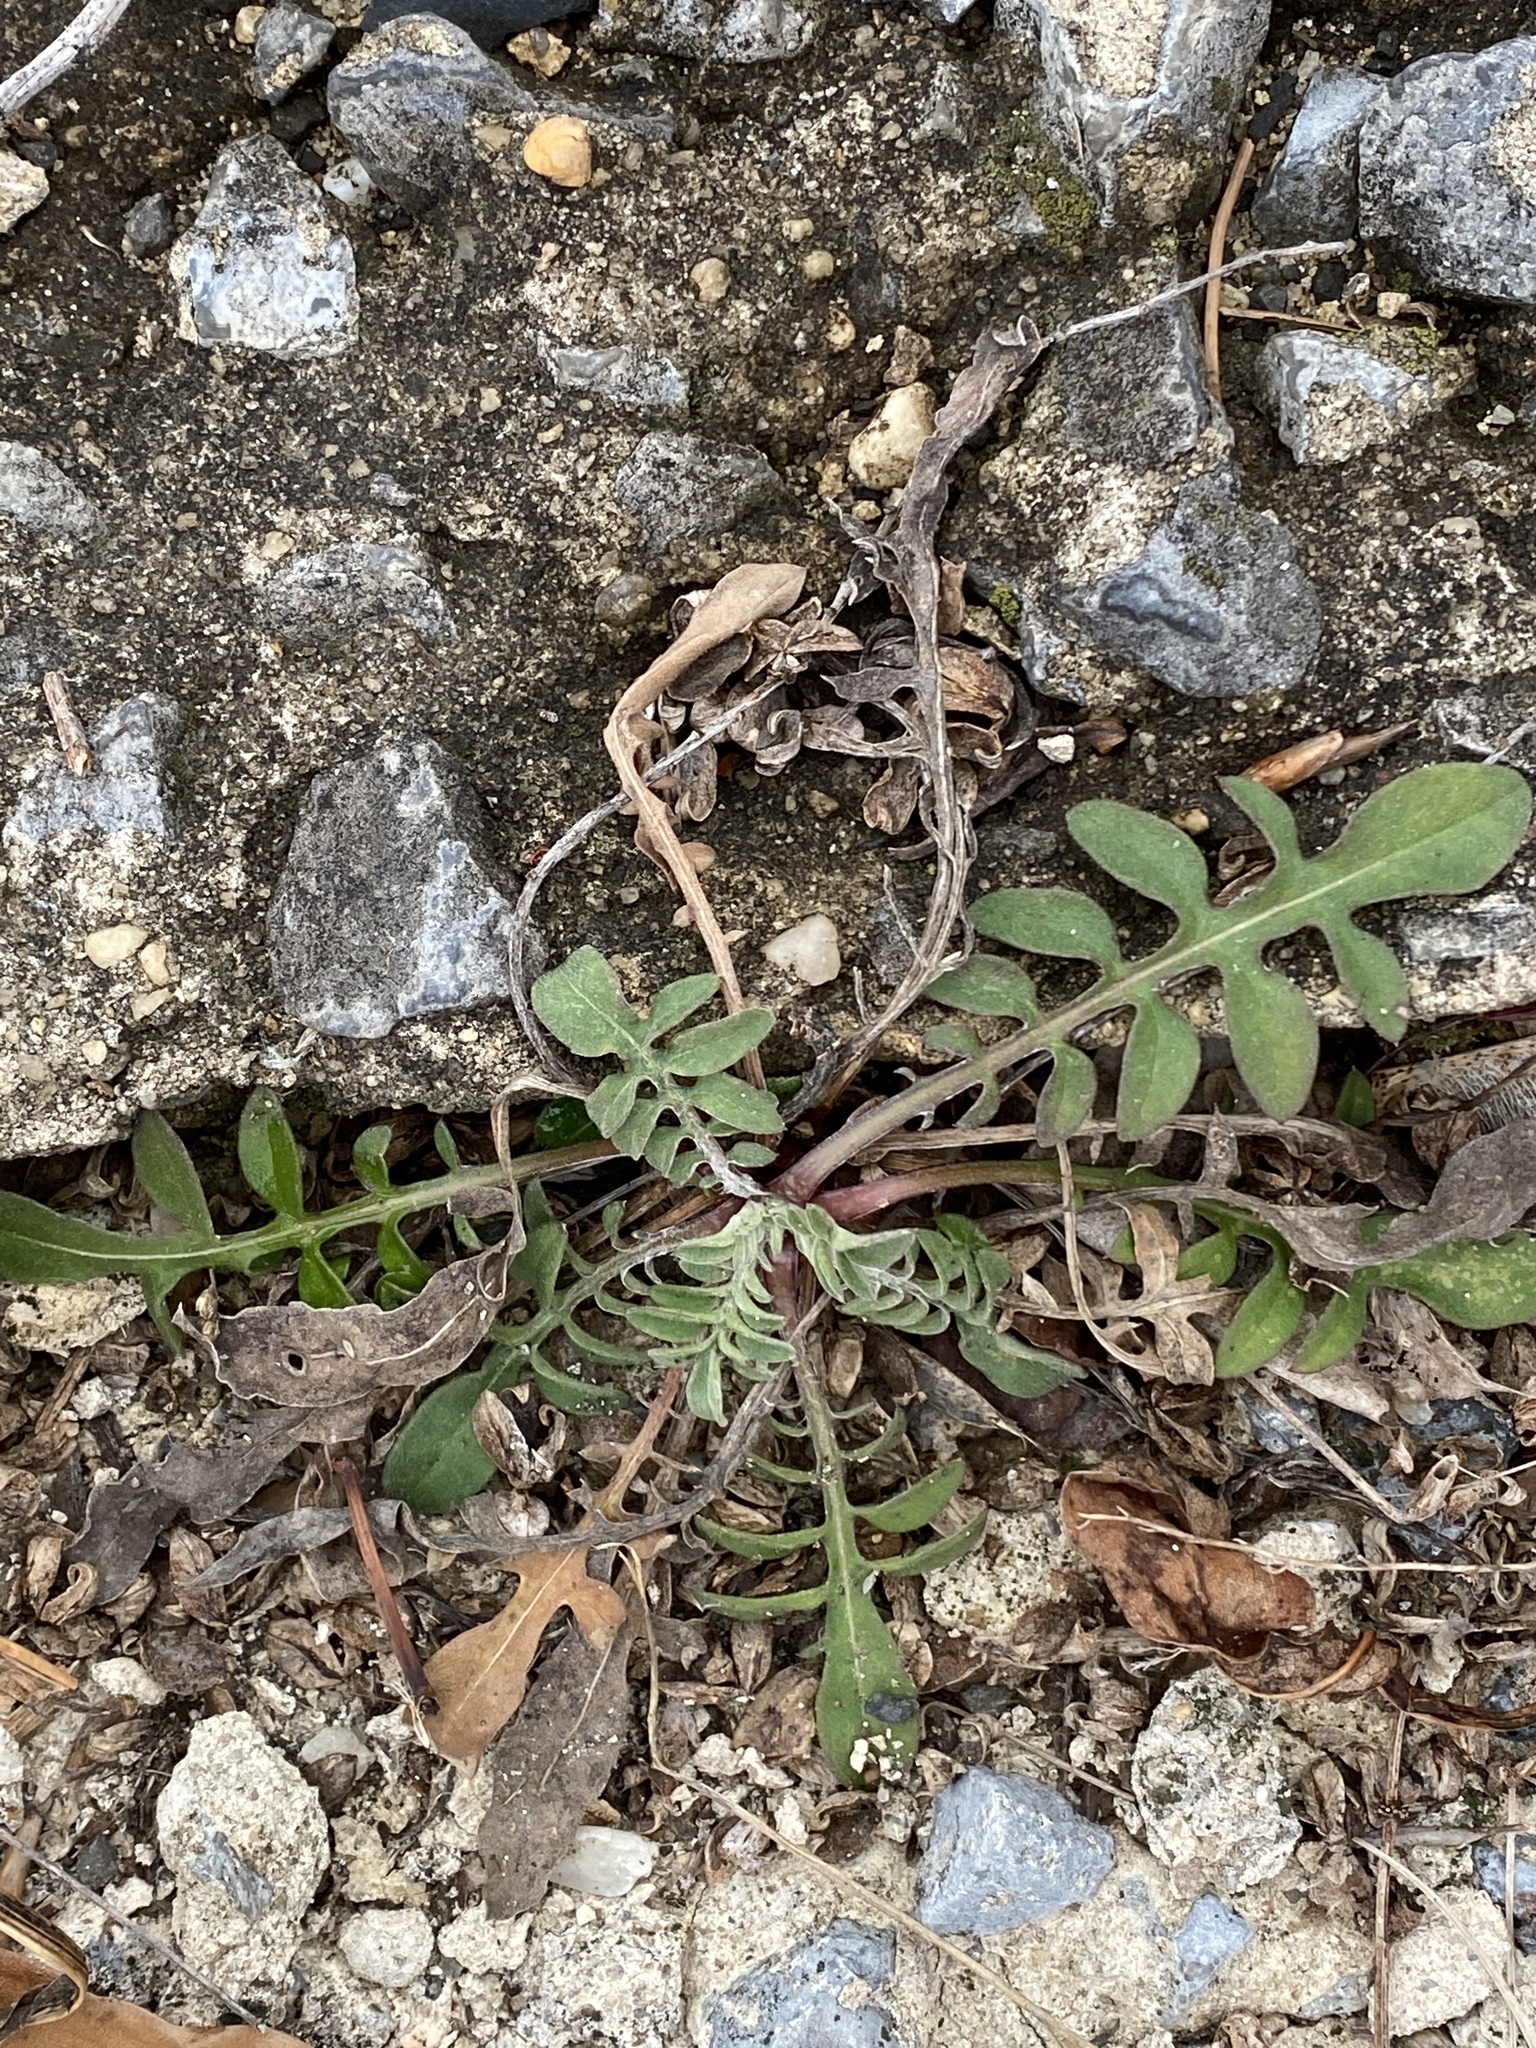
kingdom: Plantae
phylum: Tracheophyta
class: Magnoliopsida
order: Asterales
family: Asteraceae
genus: Centaurea
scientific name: Centaurea stoebe
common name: Spotted knapweed
